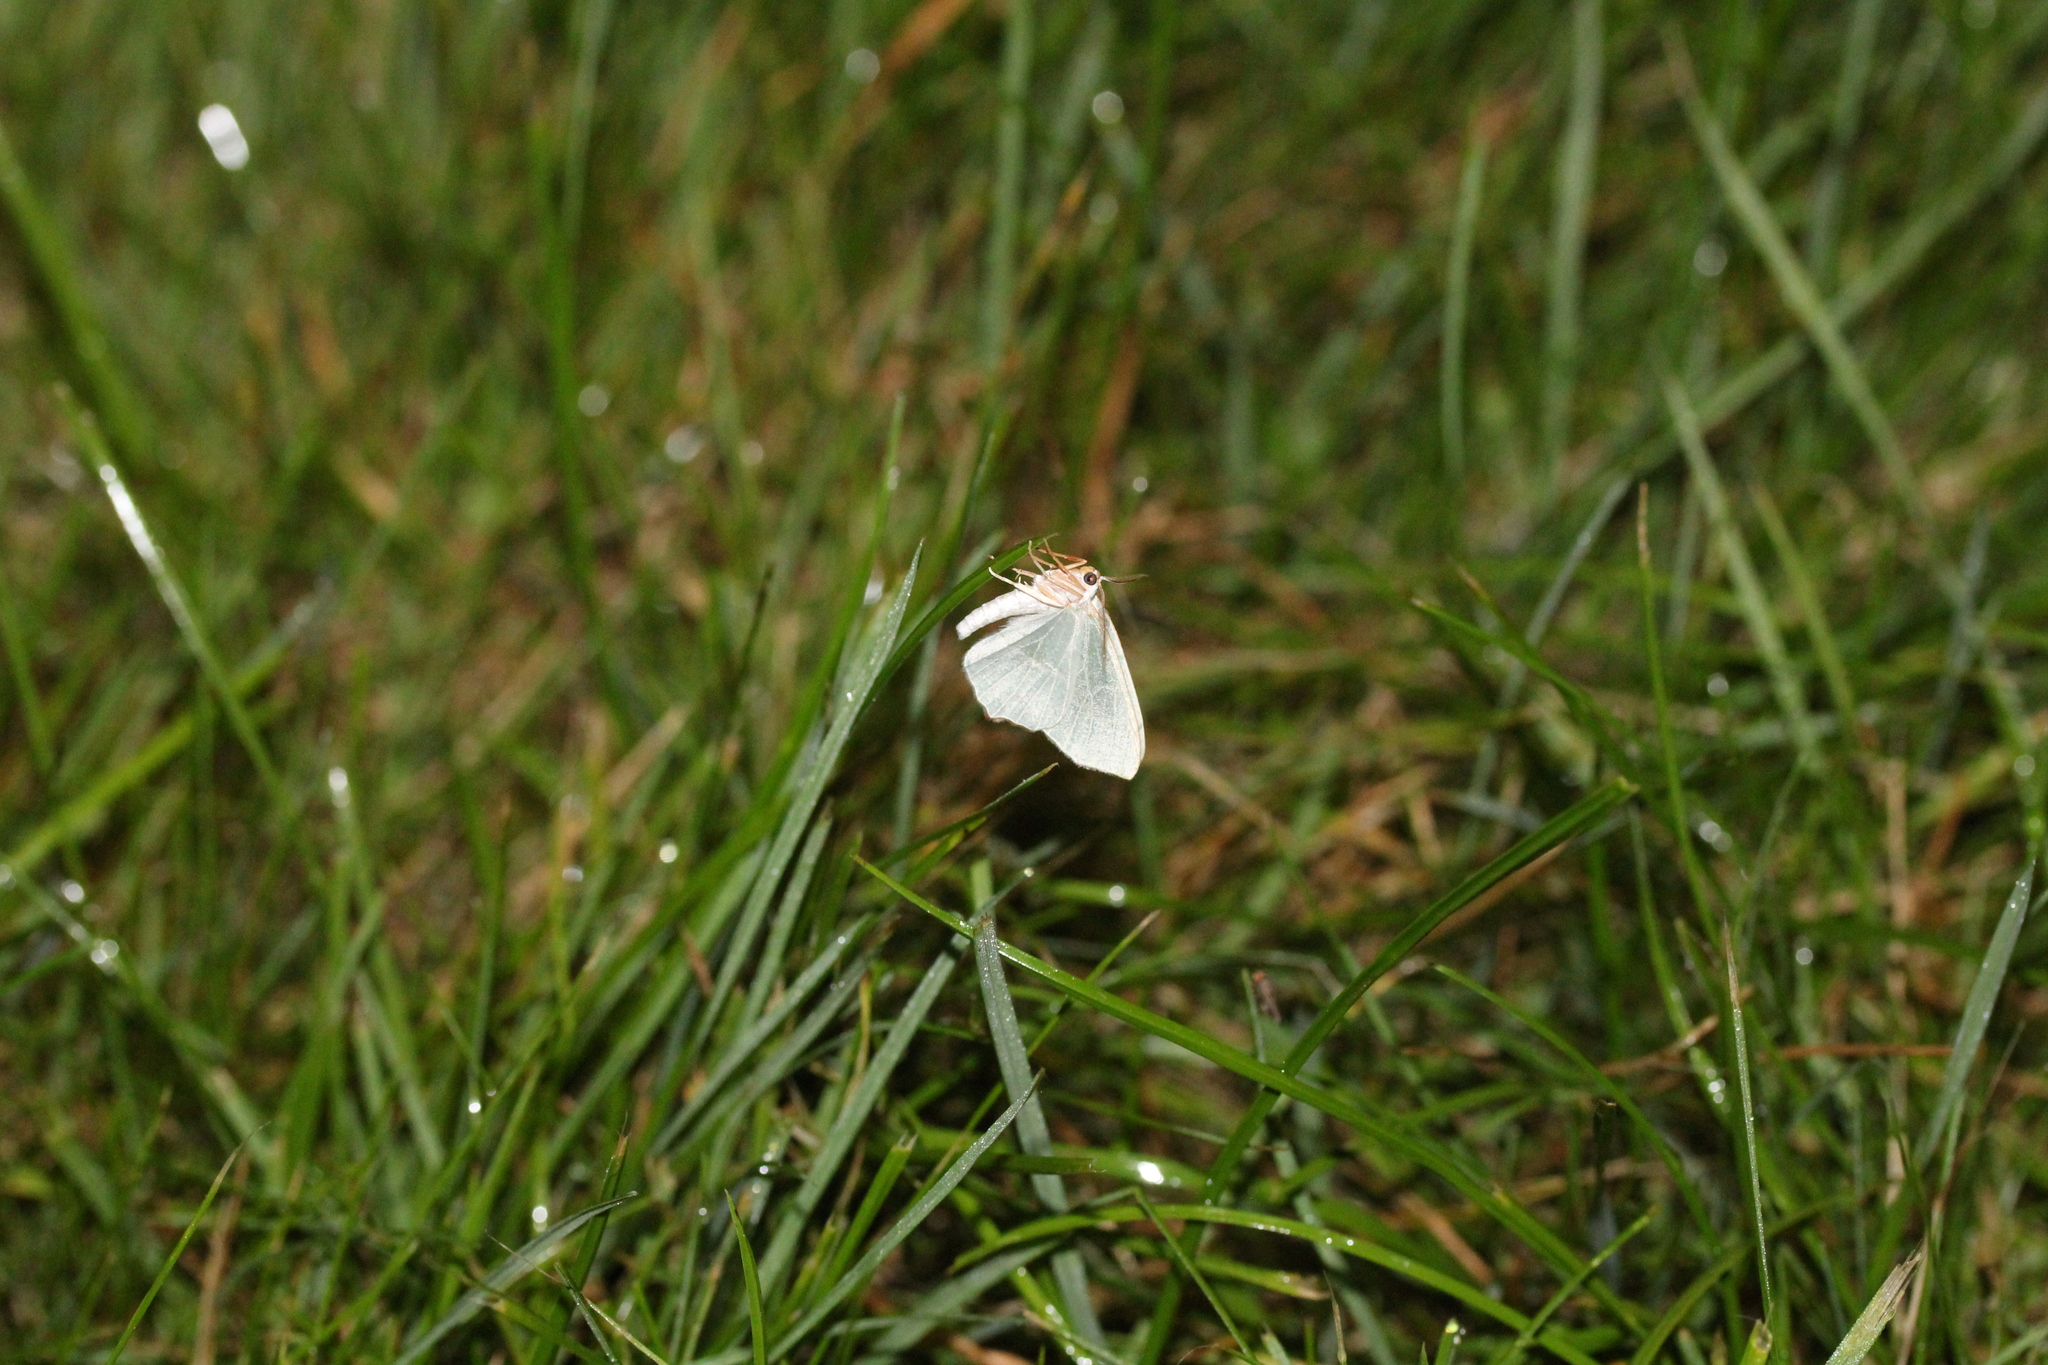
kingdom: Animalia
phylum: Arthropoda
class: Insecta
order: Lepidoptera
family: Geometridae
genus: Campaea
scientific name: Campaea margaritaria
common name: Light emerald
